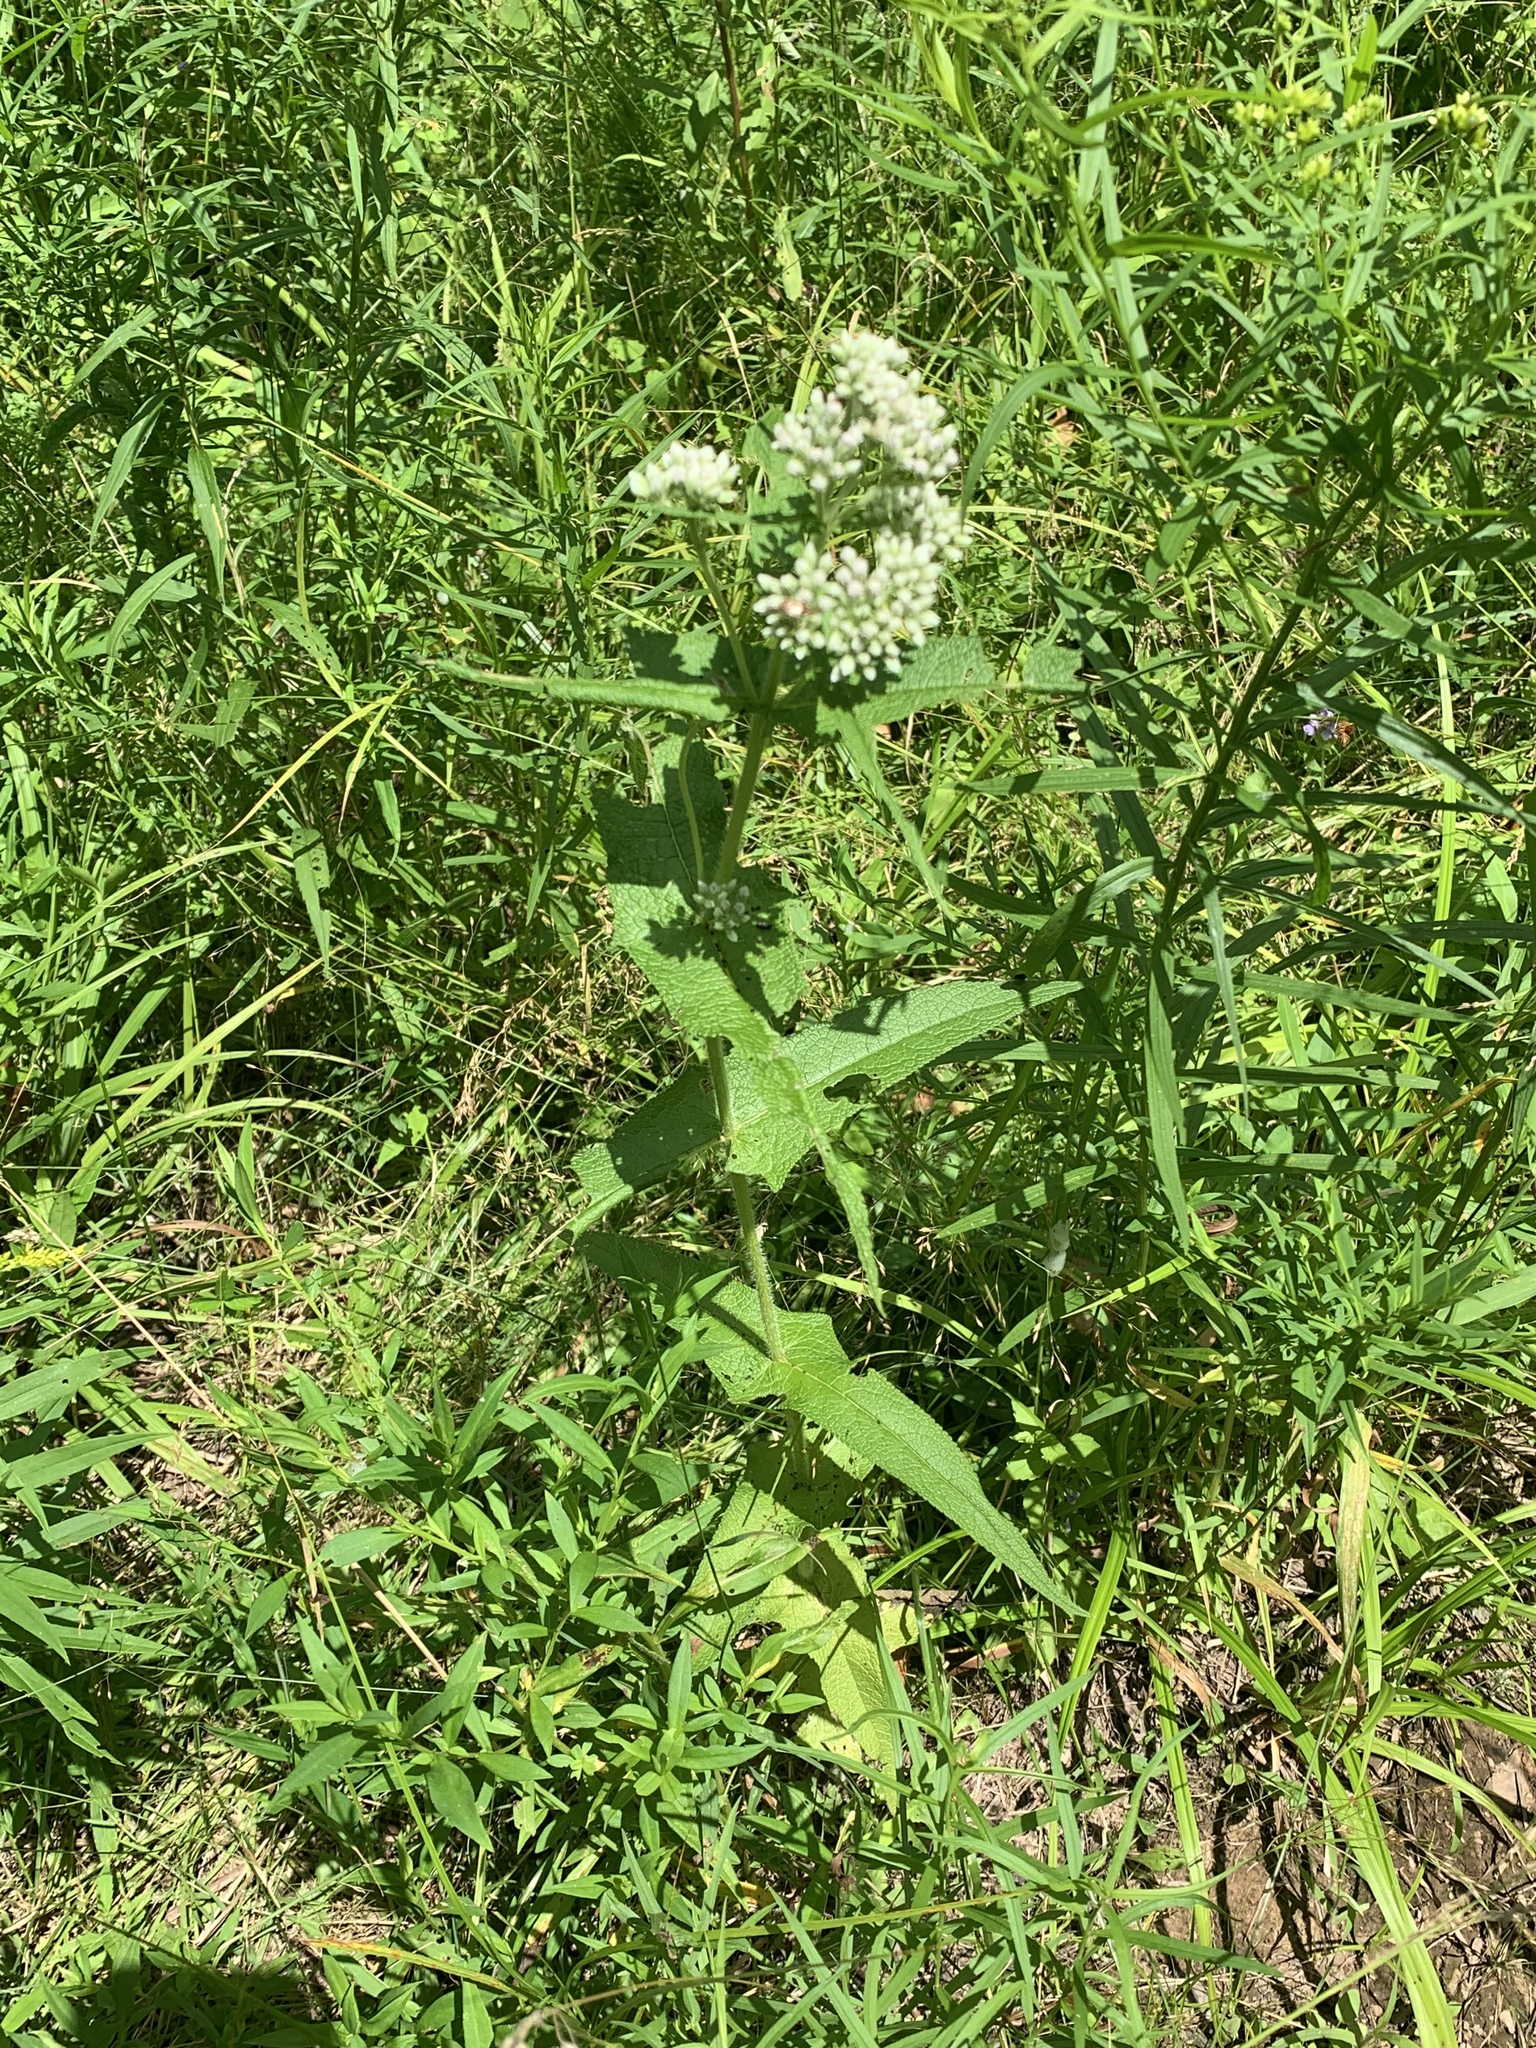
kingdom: Plantae
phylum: Tracheophyta
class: Magnoliopsida
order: Asterales
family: Asteraceae
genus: Eupatorium
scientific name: Eupatorium perfoliatum
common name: Boneset
